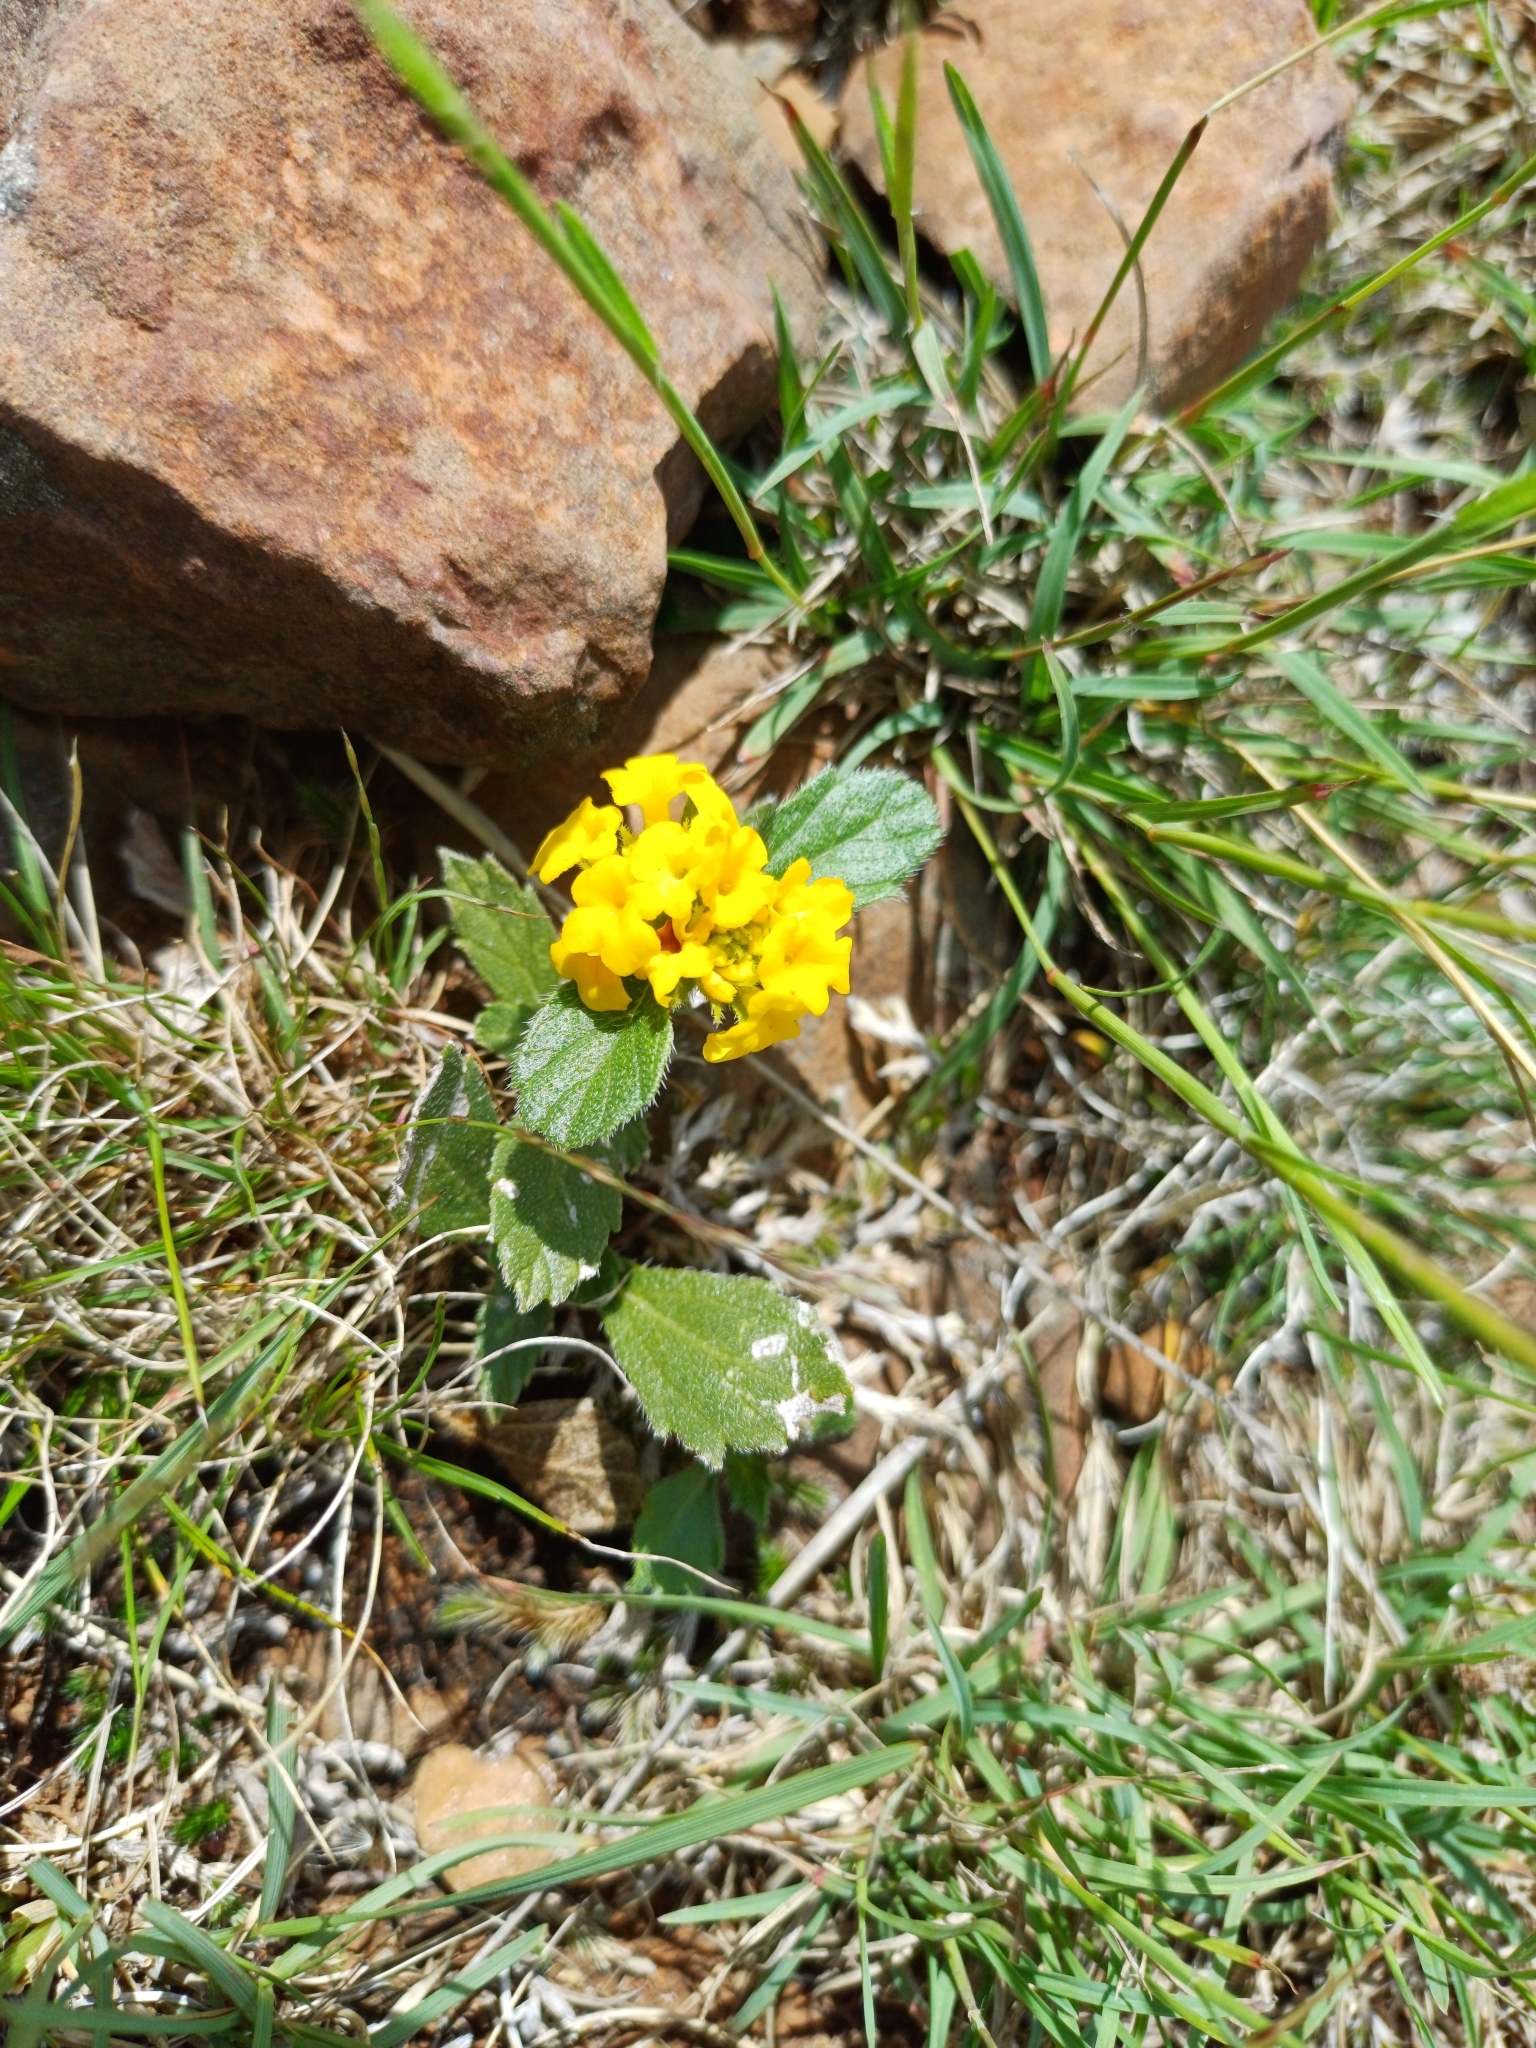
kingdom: Plantae
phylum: Tracheophyta
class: Magnoliopsida
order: Lamiales
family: Verbenaceae
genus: Lippia
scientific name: Lippia coarctata
